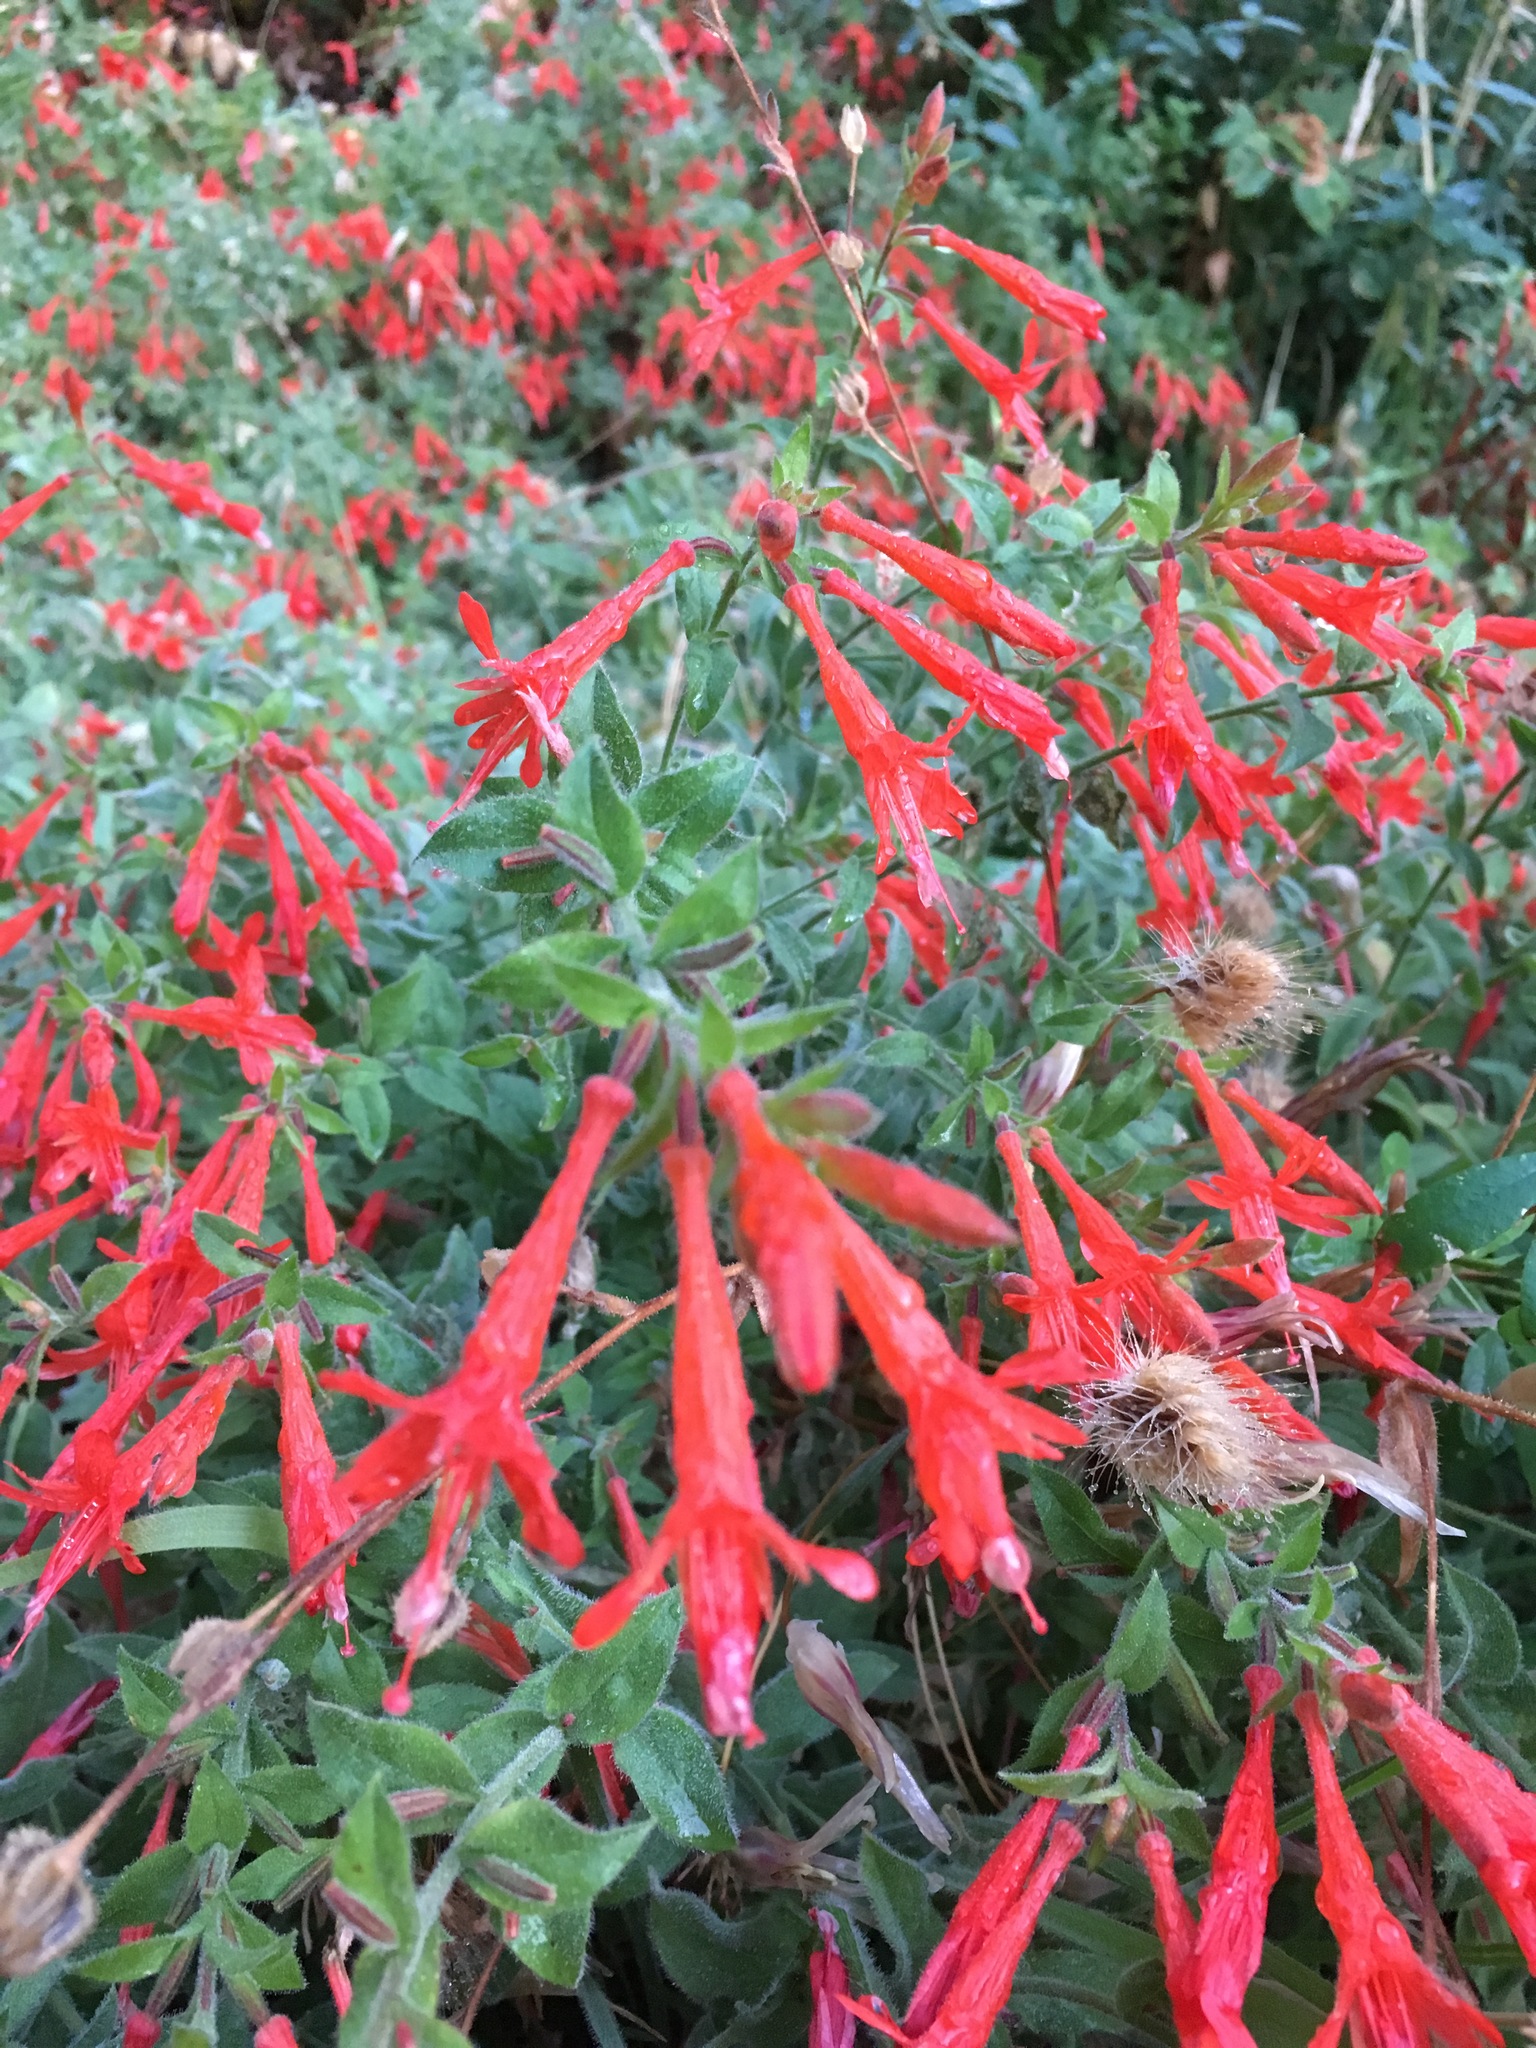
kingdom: Plantae
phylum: Tracheophyta
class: Magnoliopsida
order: Myrtales
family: Onagraceae
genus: Epilobium
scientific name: Epilobium canum
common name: California-fuchsia
